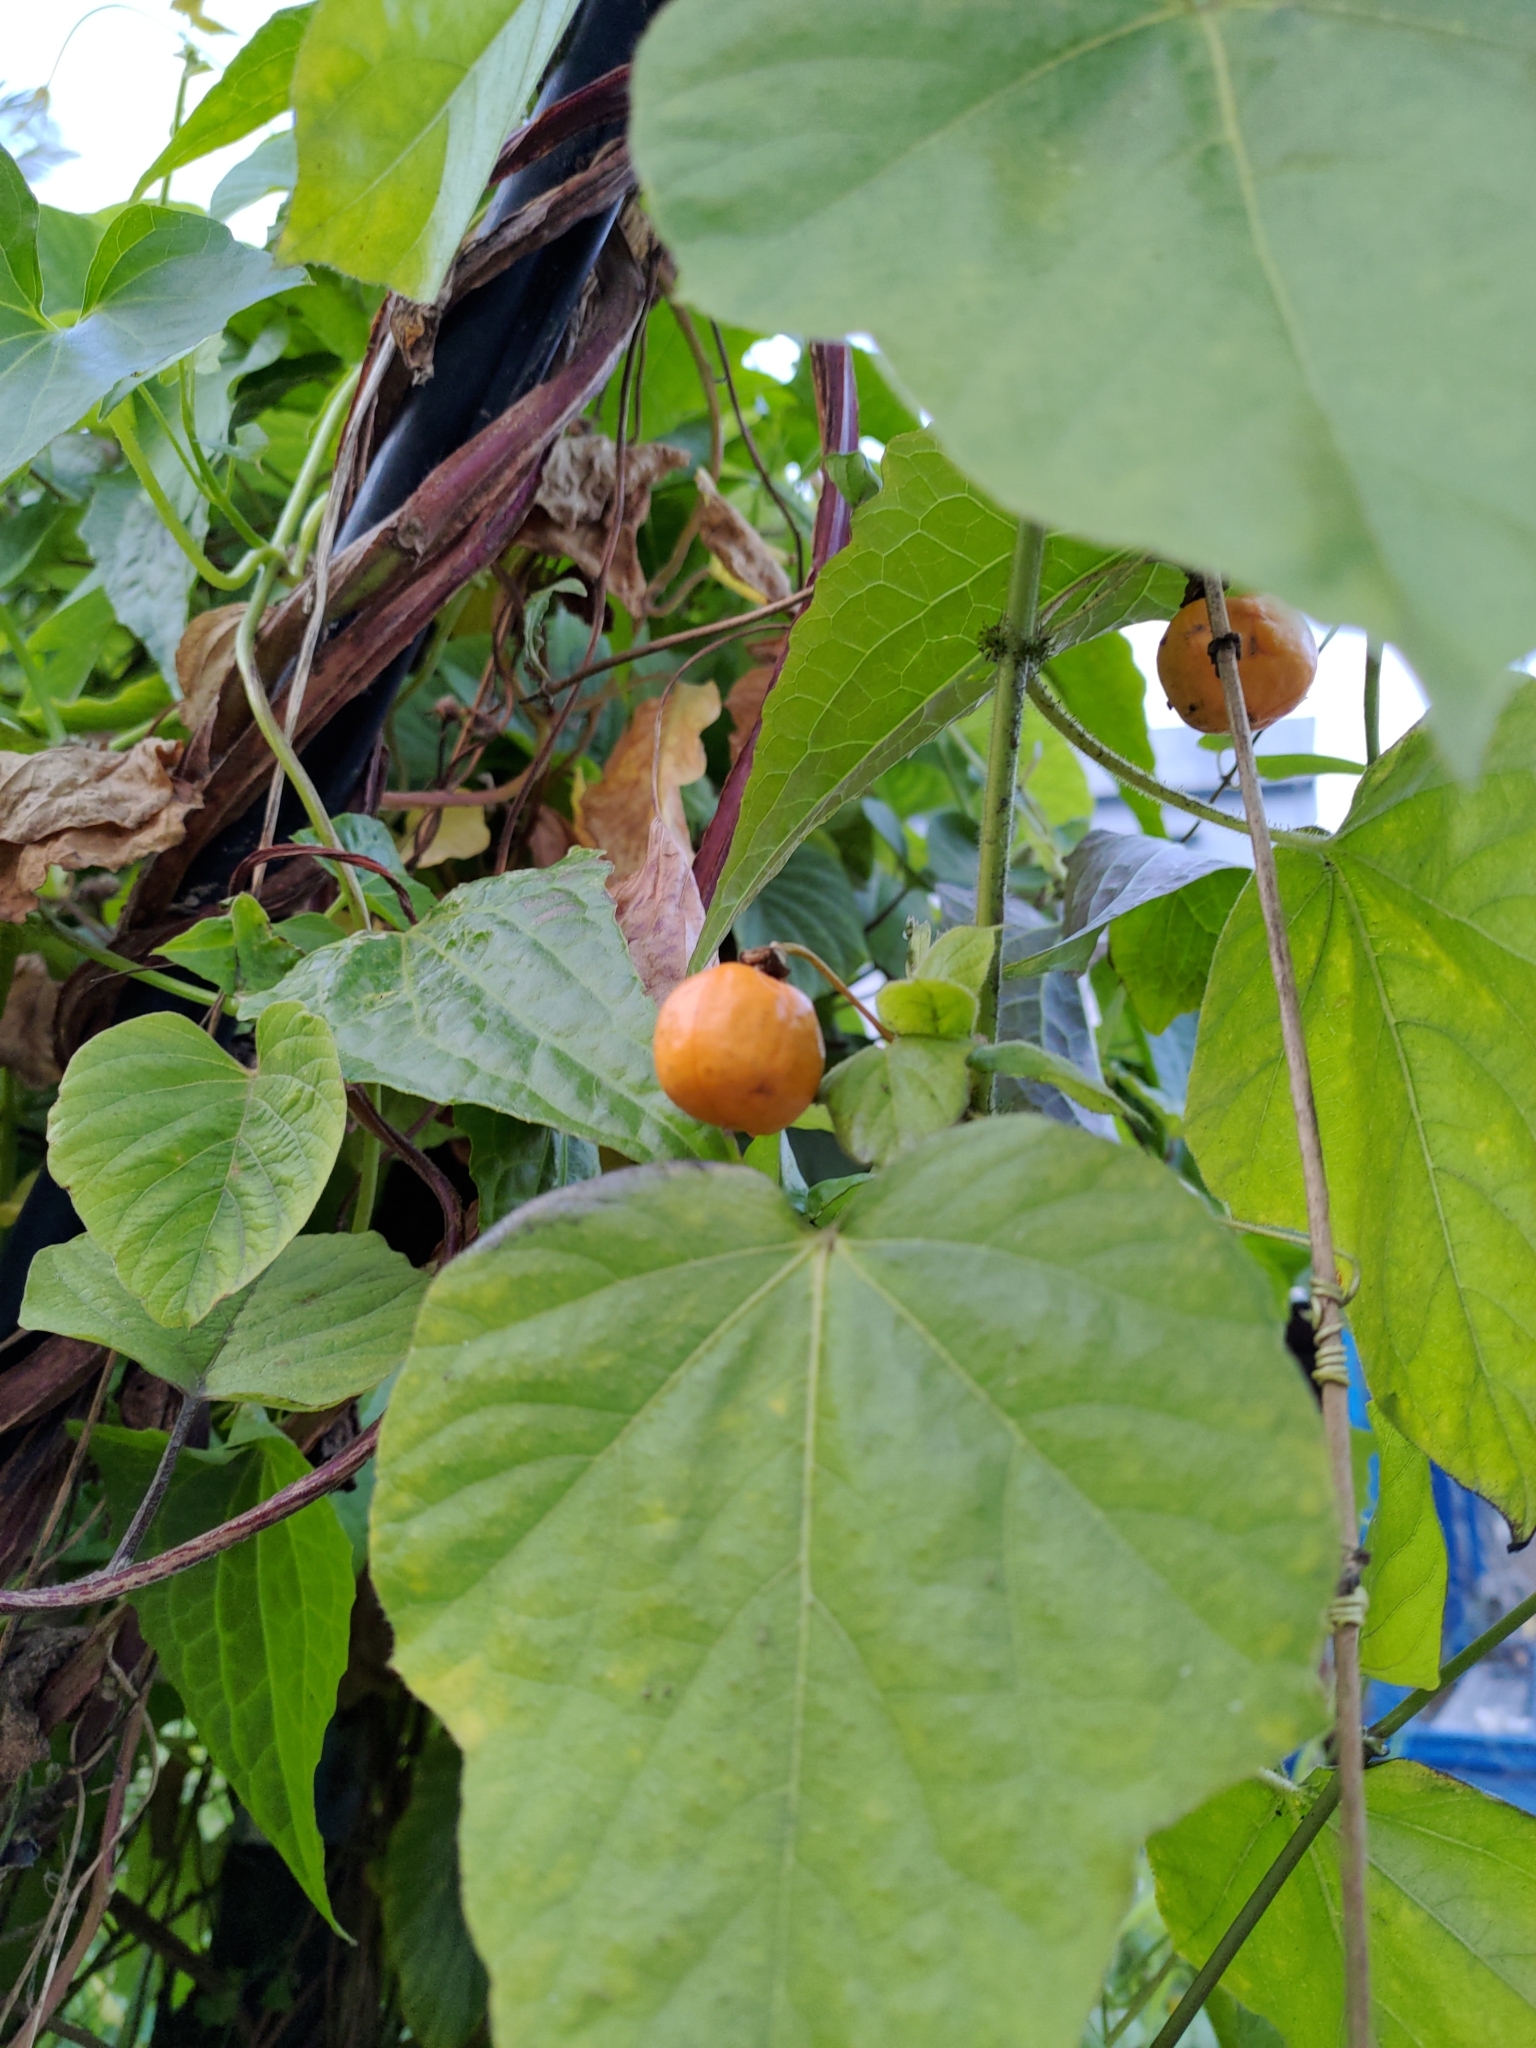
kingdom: Plantae
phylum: Tracheophyta
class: Magnoliopsida
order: Malpighiales
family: Passifloraceae
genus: Passiflora
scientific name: Passiflora vesicaria
